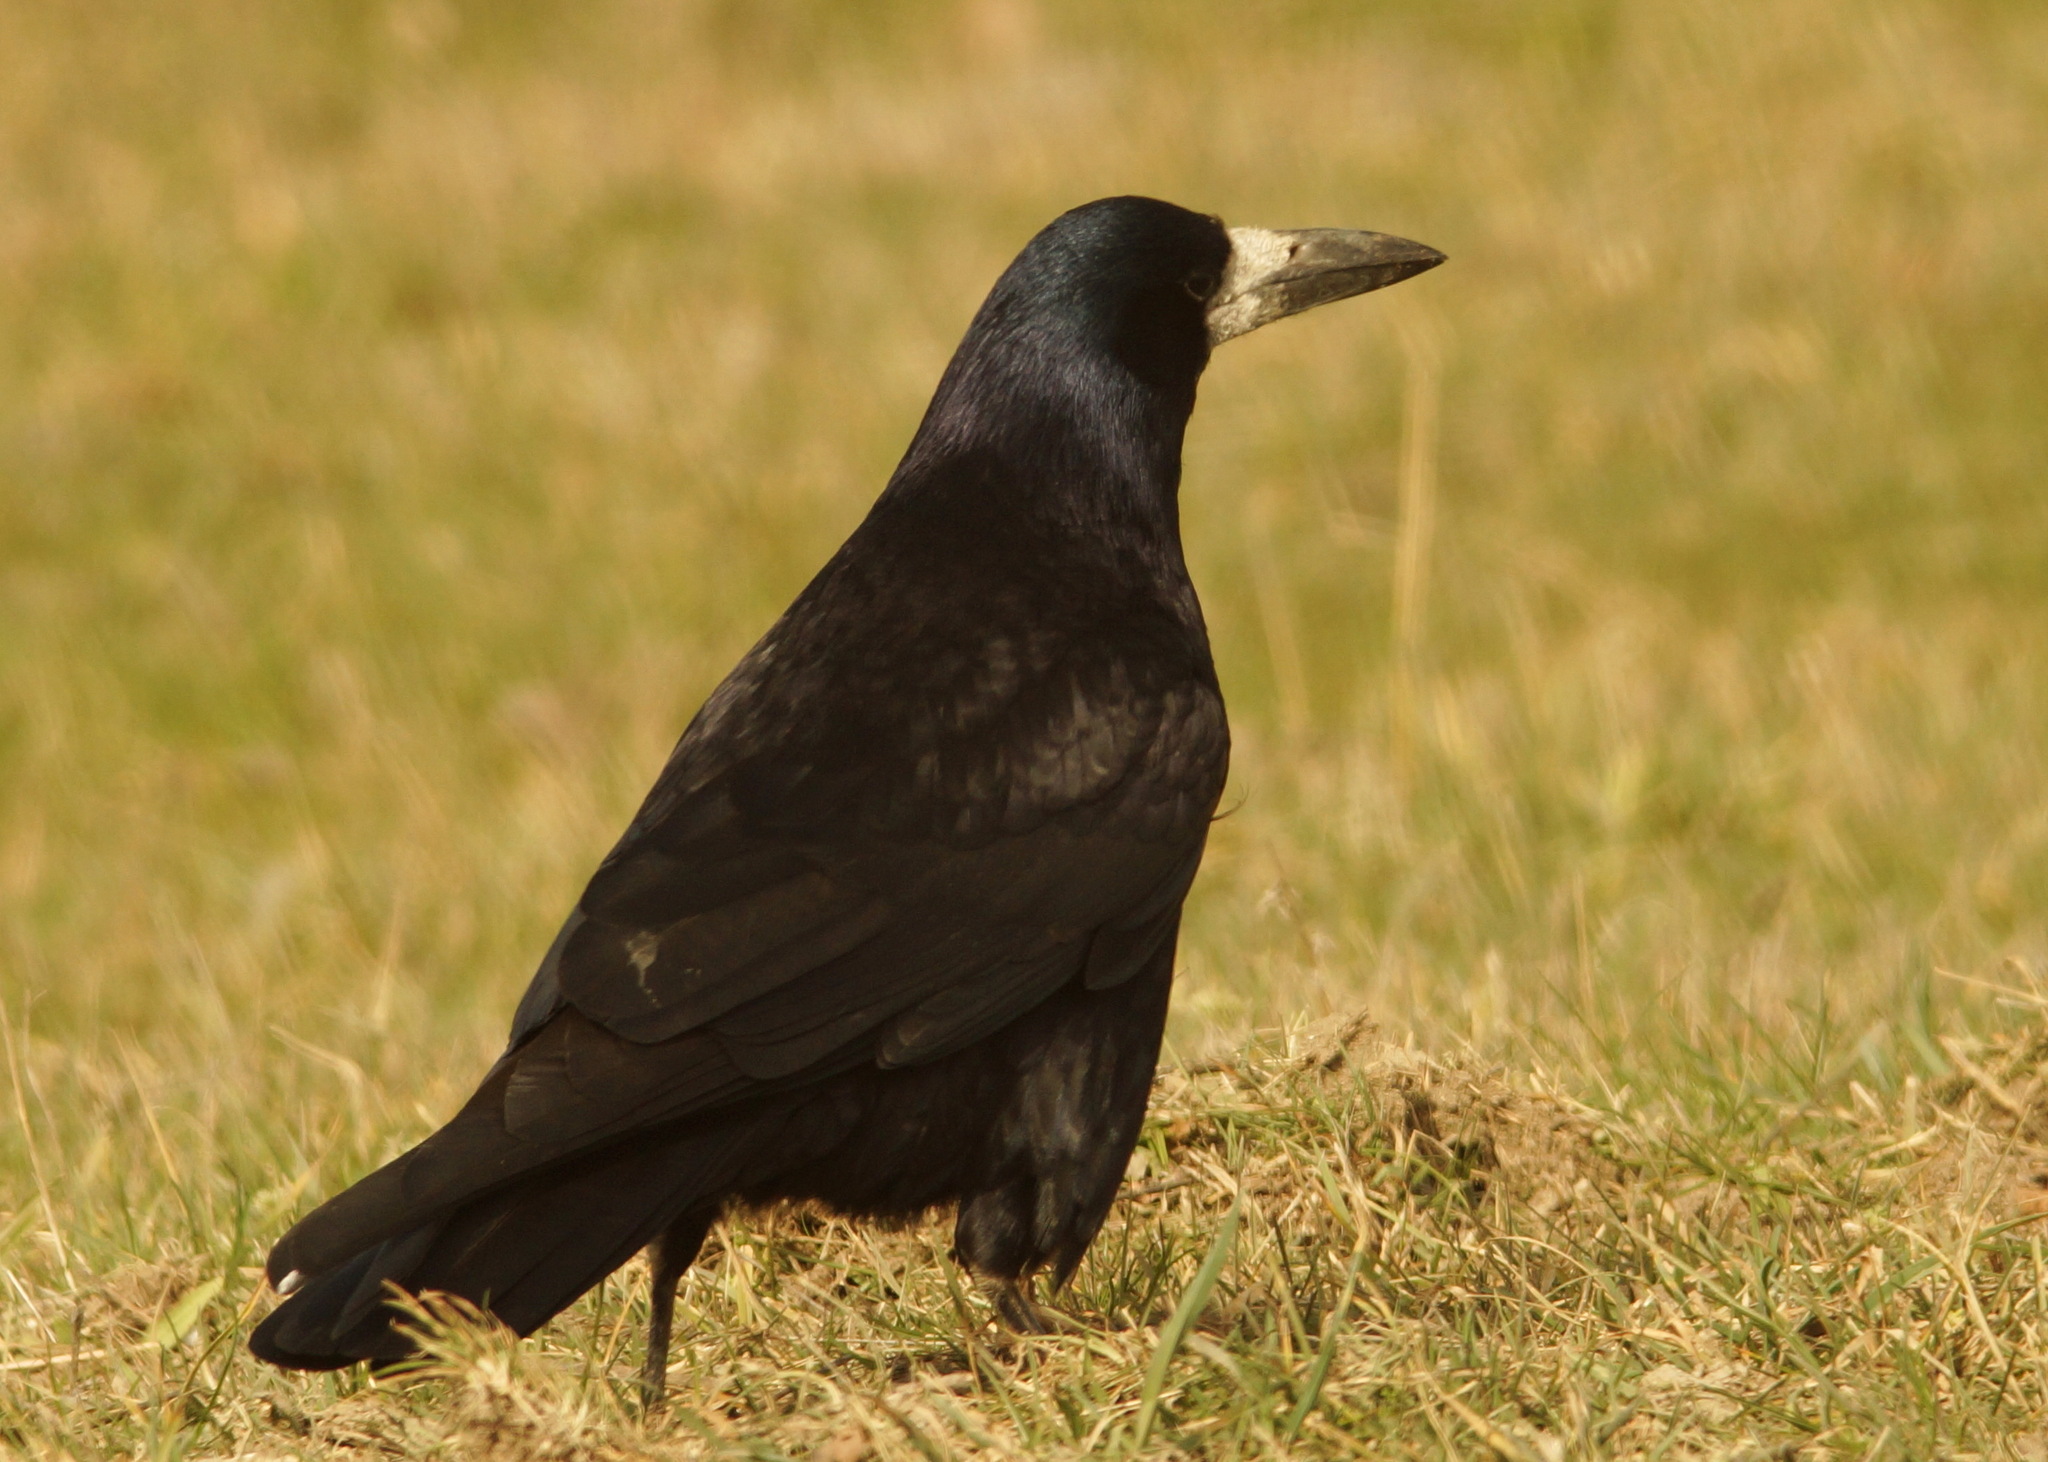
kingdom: Animalia
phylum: Chordata
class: Aves
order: Passeriformes
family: Corvidae
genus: Corvus
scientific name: Corvus frugilegus
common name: Rook
